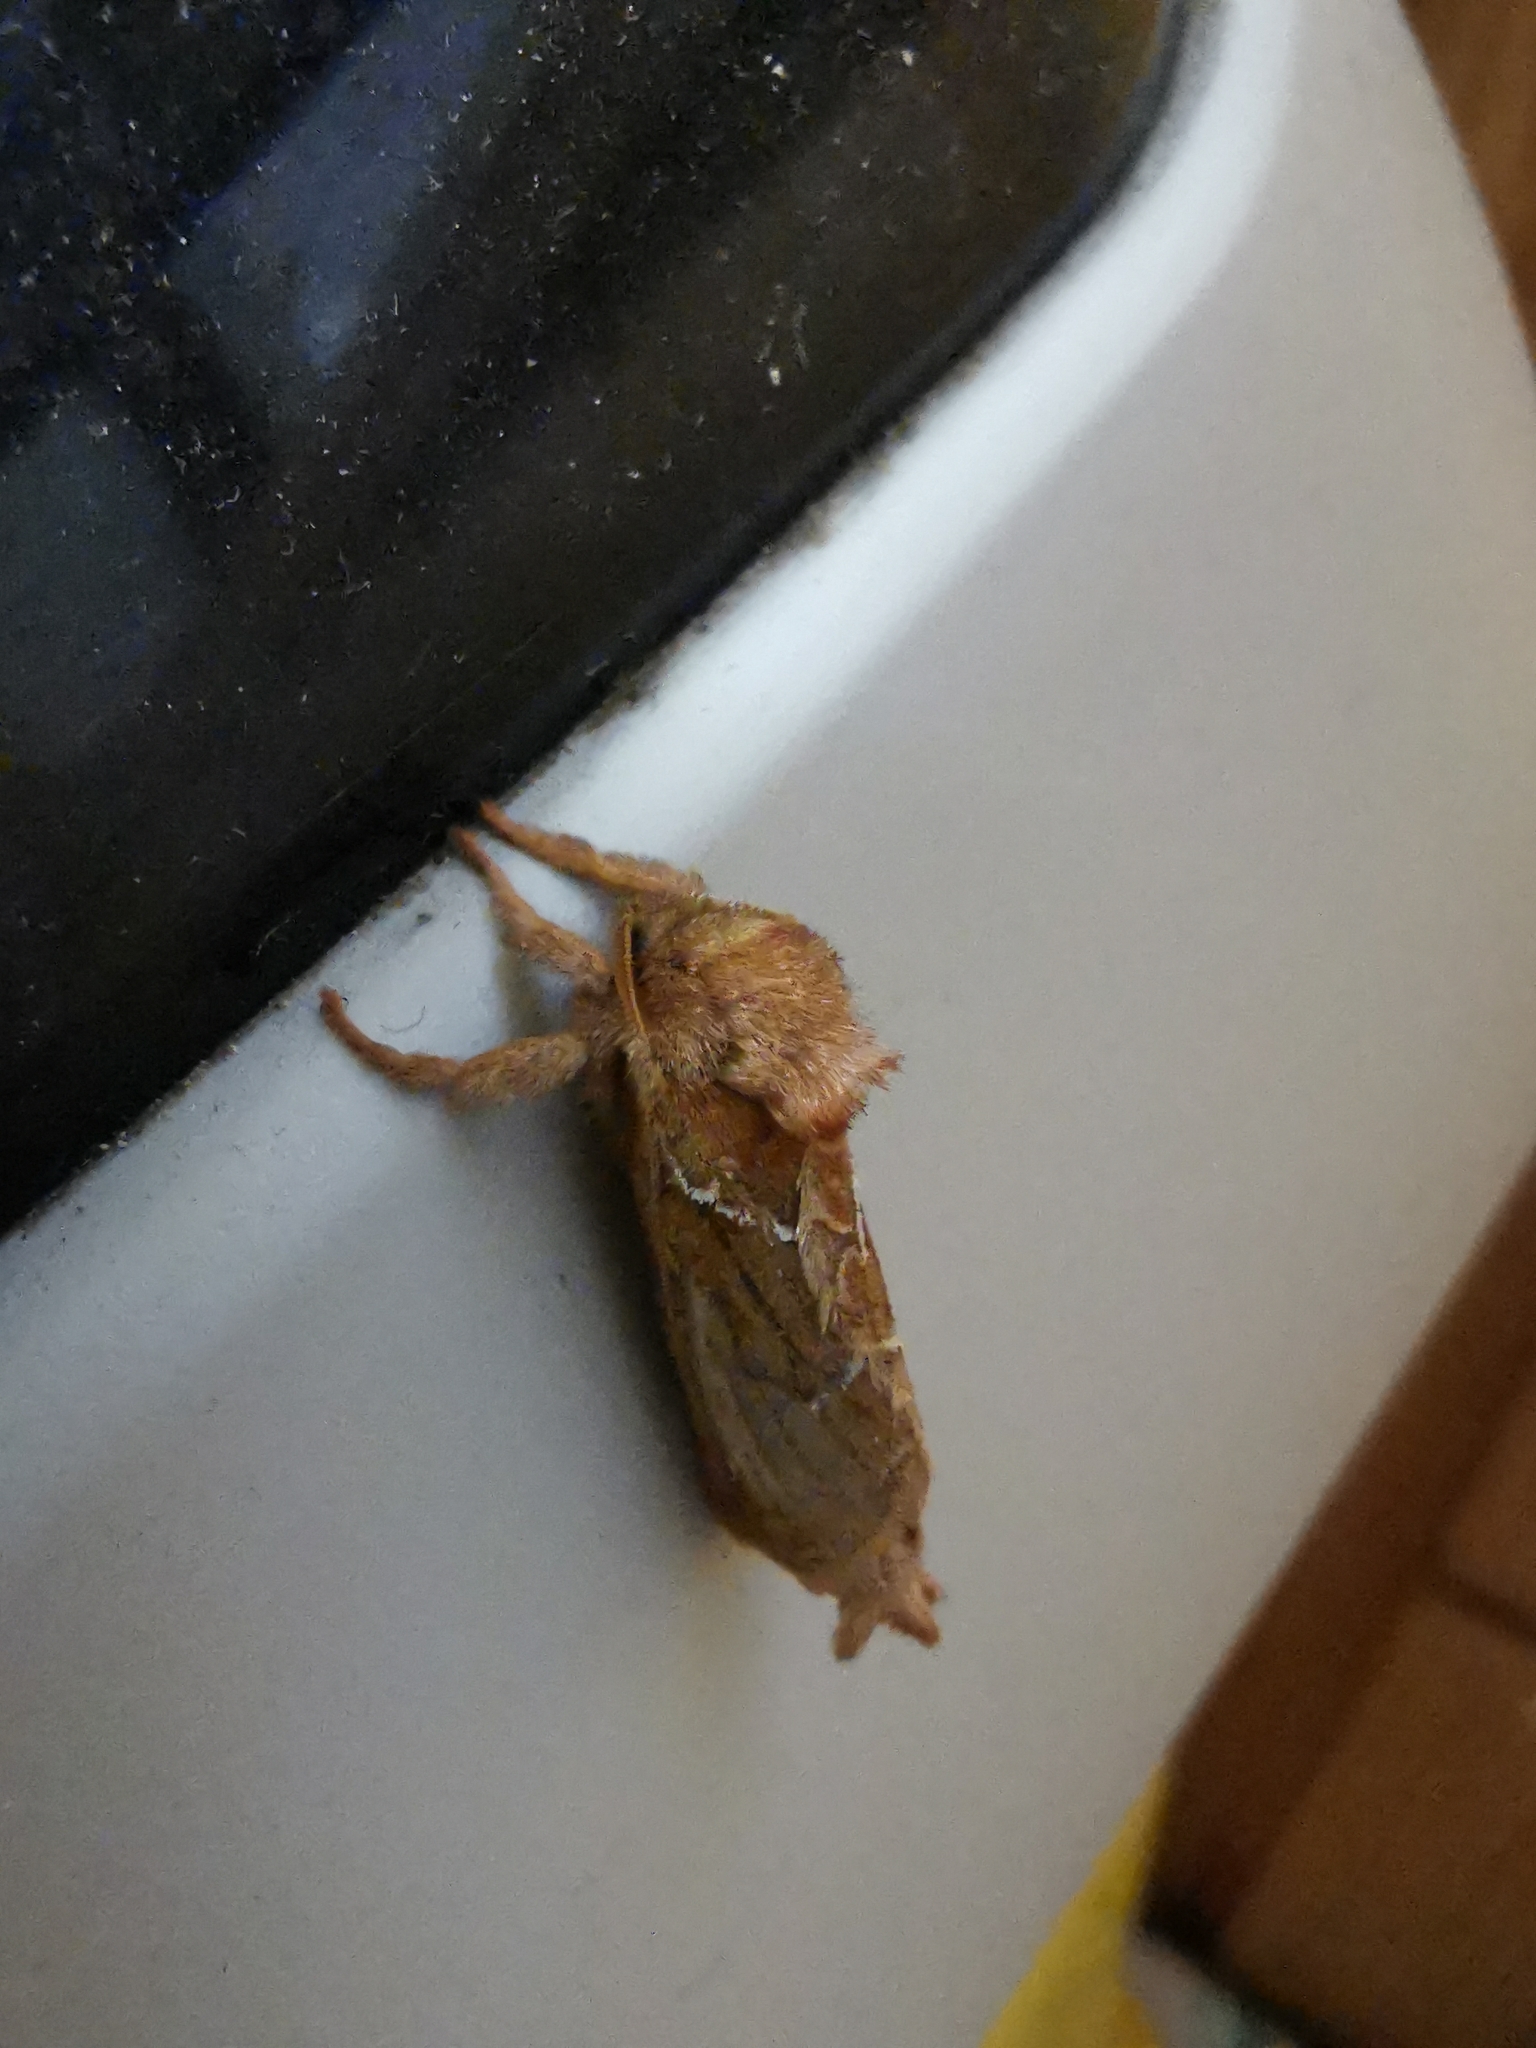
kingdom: Animalia
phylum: Arthropoda
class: Insecta
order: Lepidoptera
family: Hepialidae
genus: Triodia
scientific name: Triodia sylvina
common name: Orange swift
